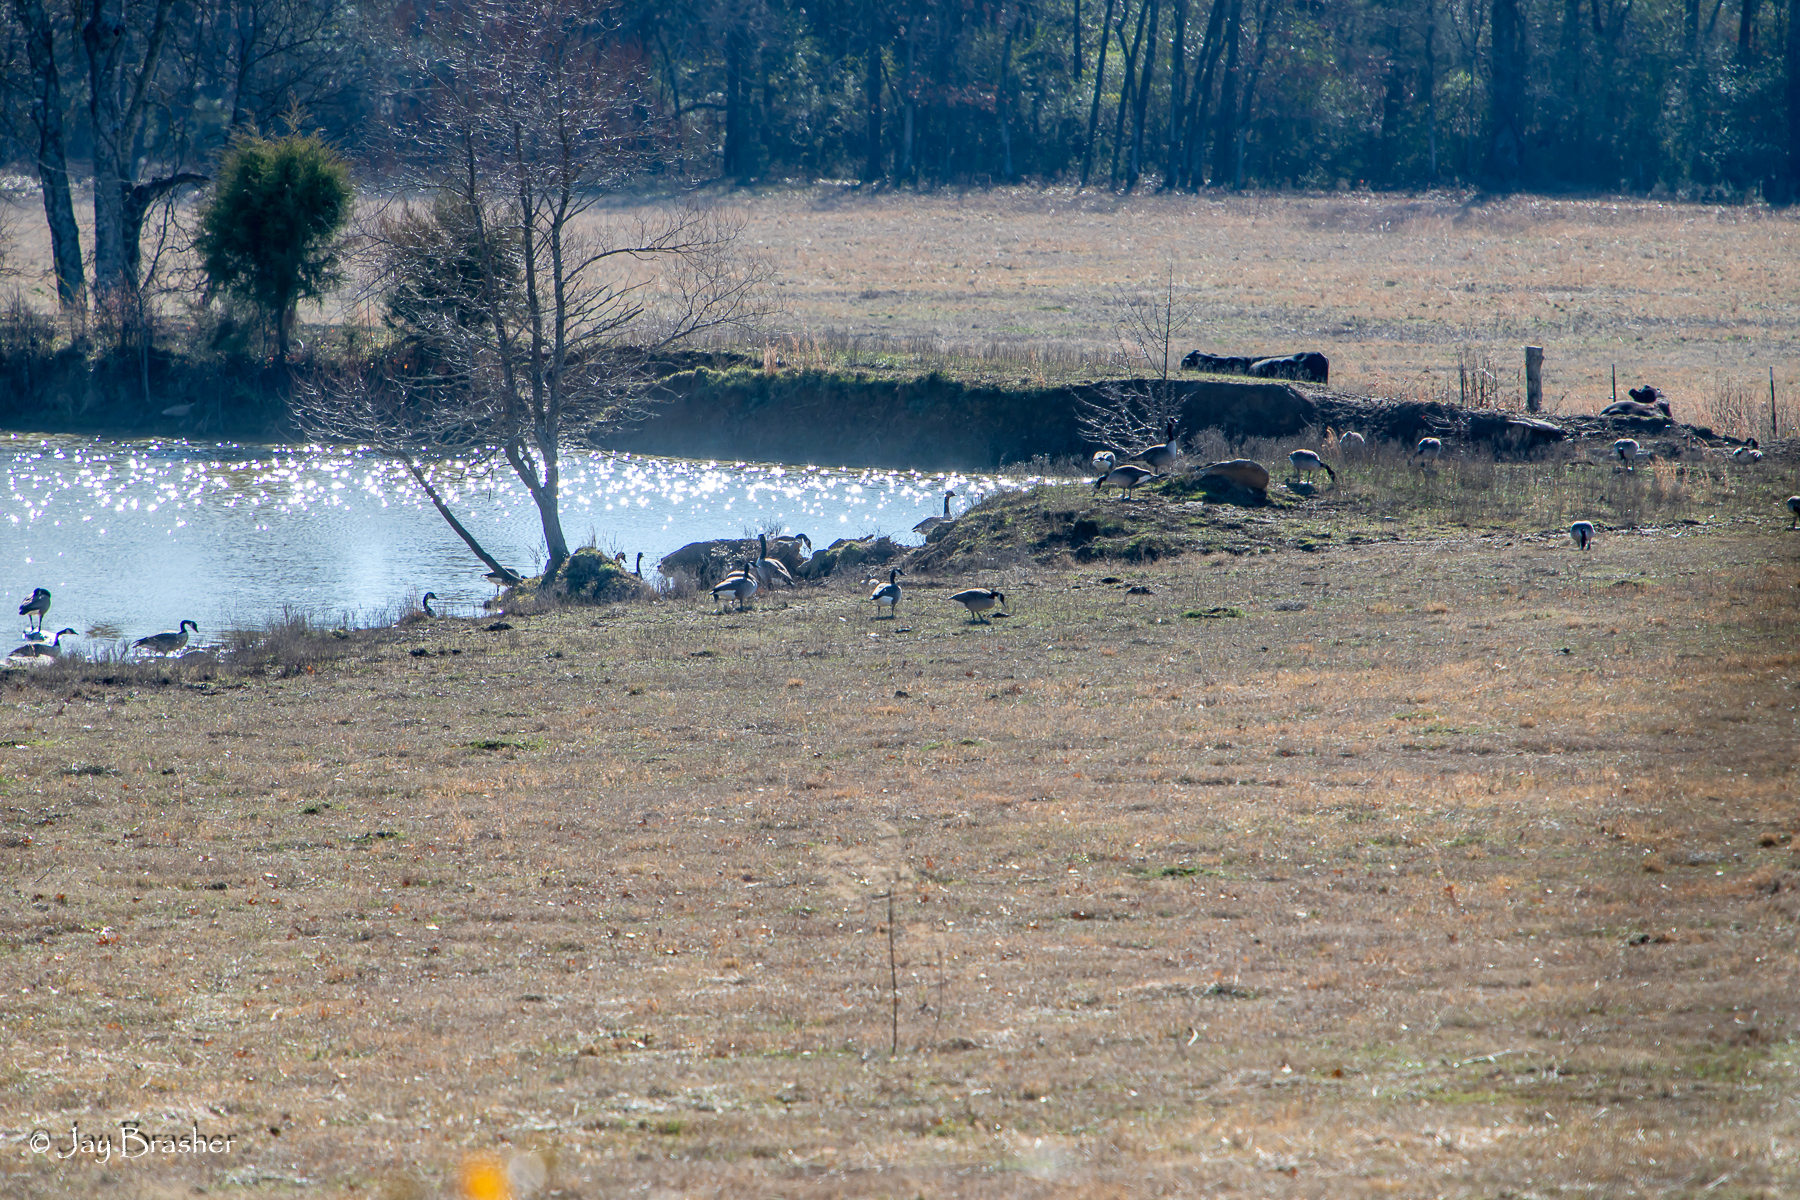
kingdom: Animalia
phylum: Chordata
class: Aves
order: Anseriformes
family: Anatidae
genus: Branta
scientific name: Branta canadensis
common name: Canada goose
